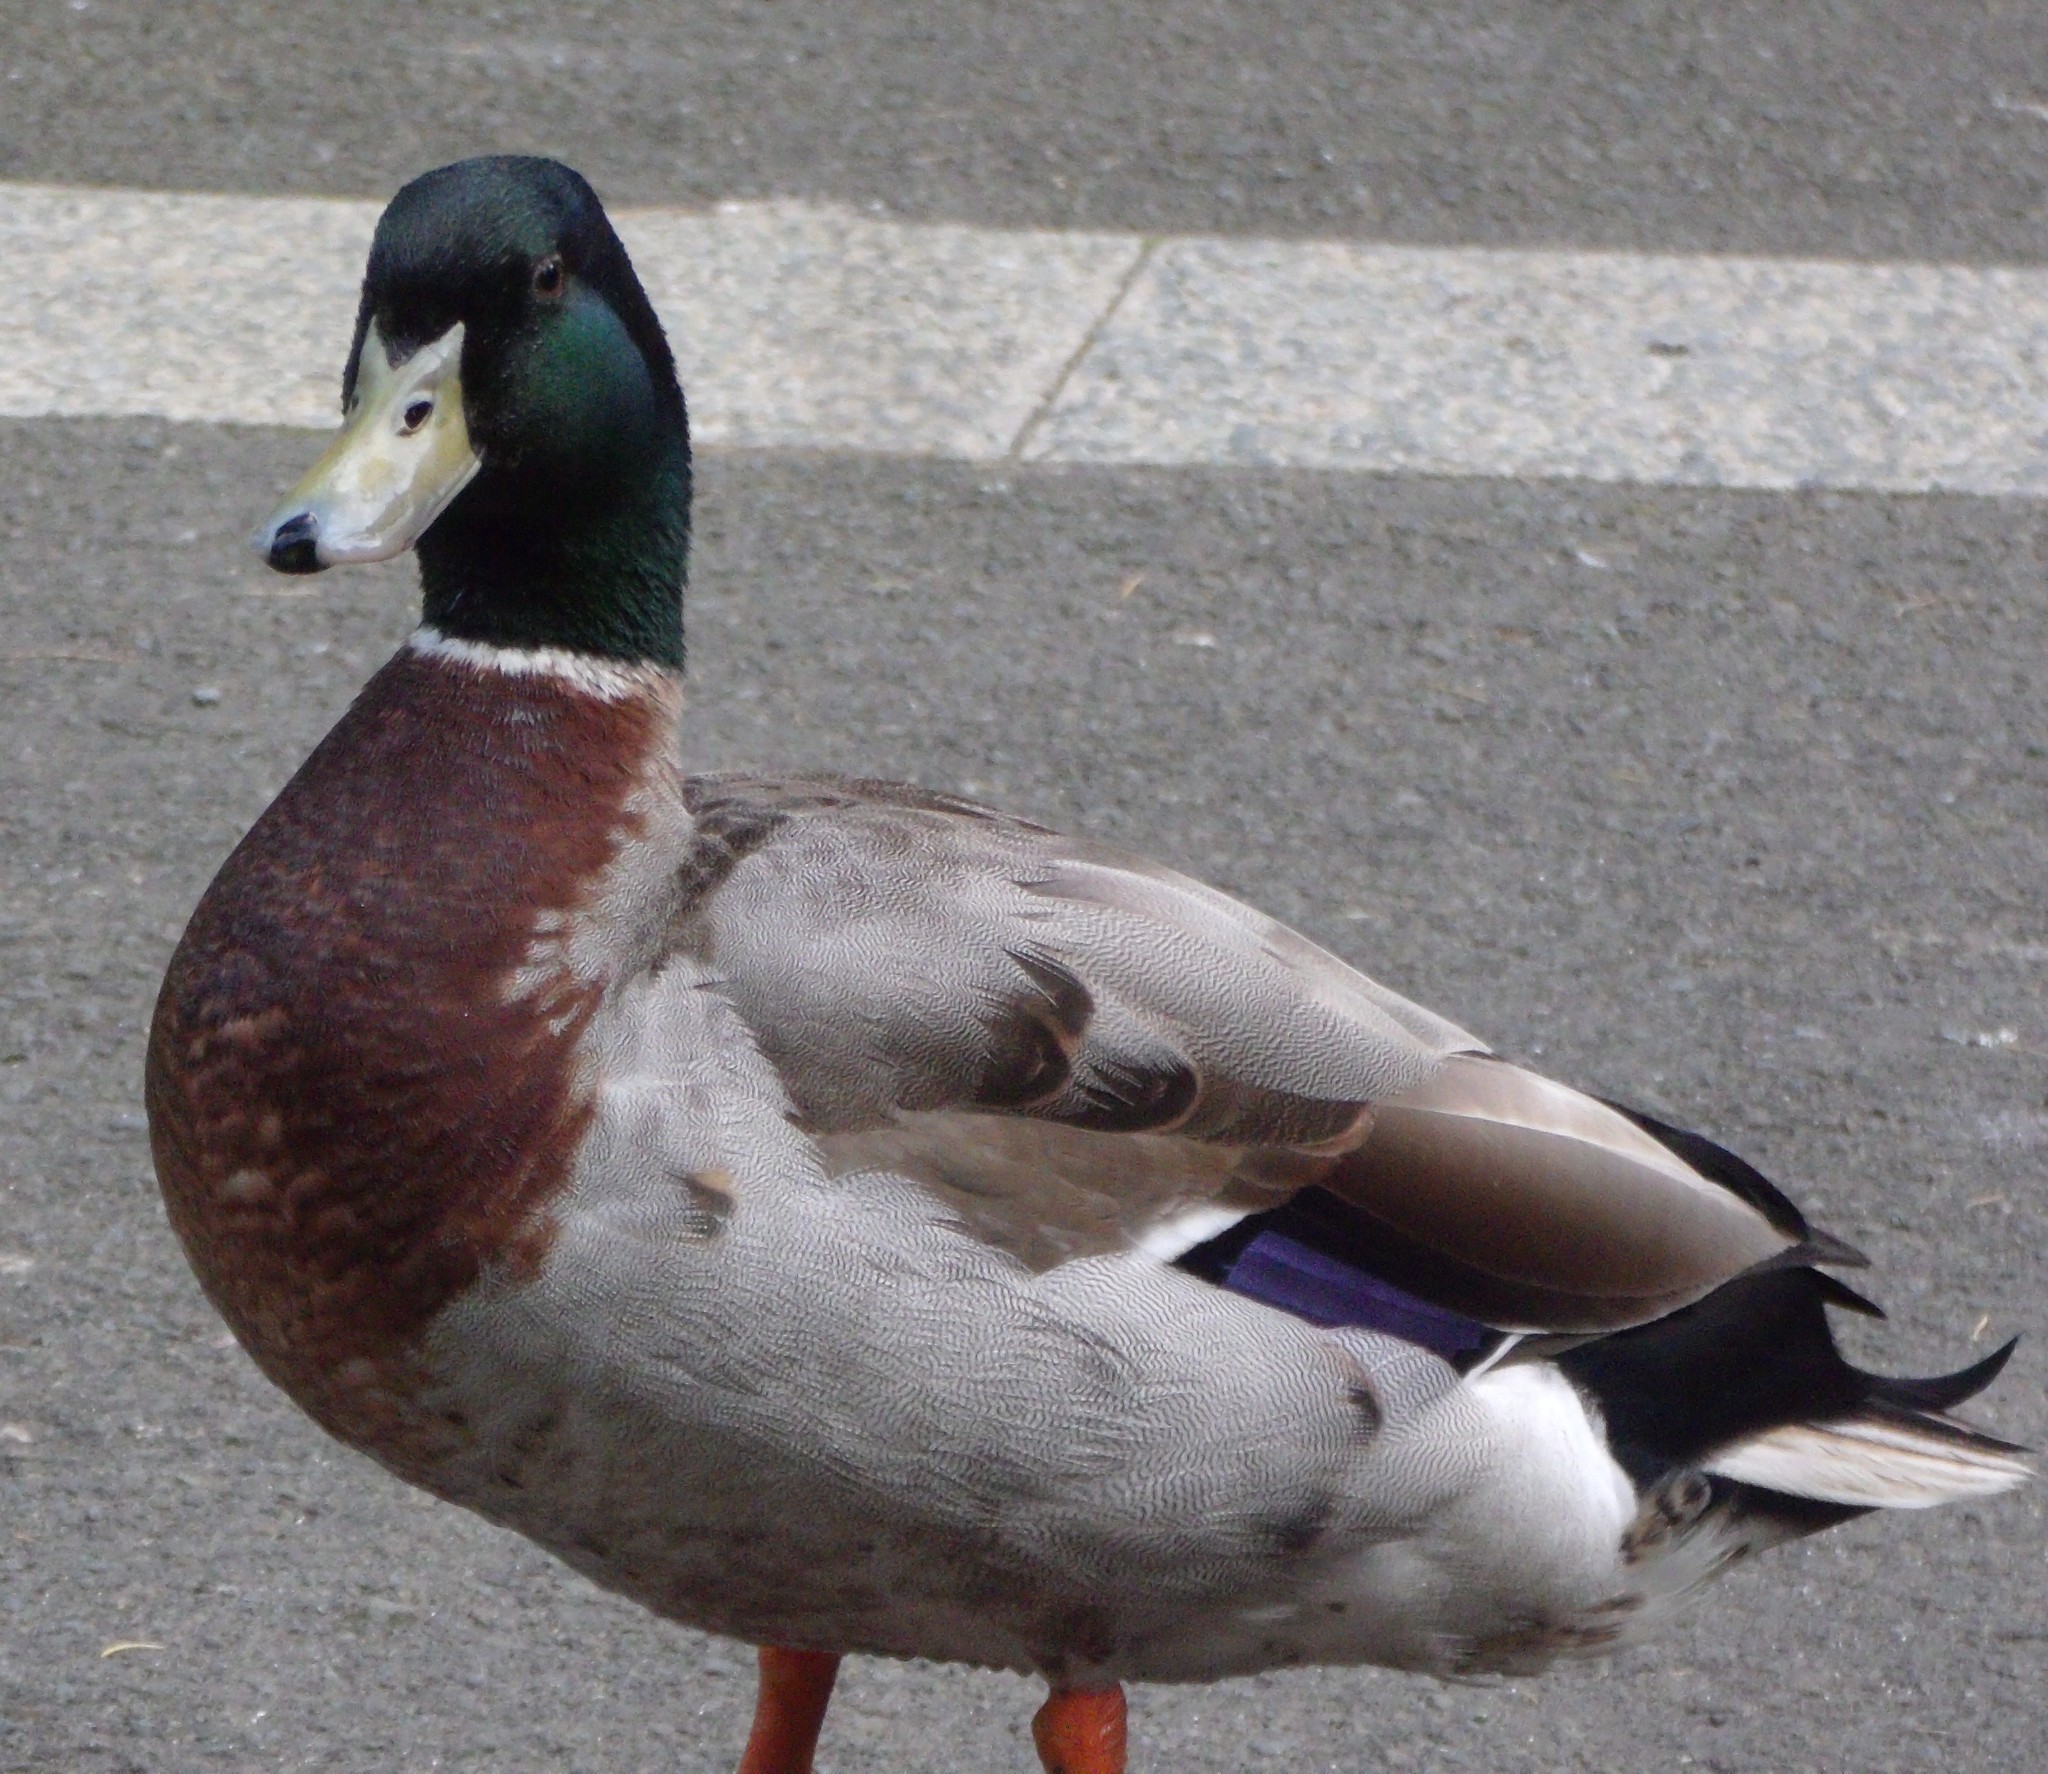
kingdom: Animalia
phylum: Chordata
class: Aves
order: Anseriformes
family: Anatidae
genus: Anas
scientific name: Anas platyrhynchos
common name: Mallard
